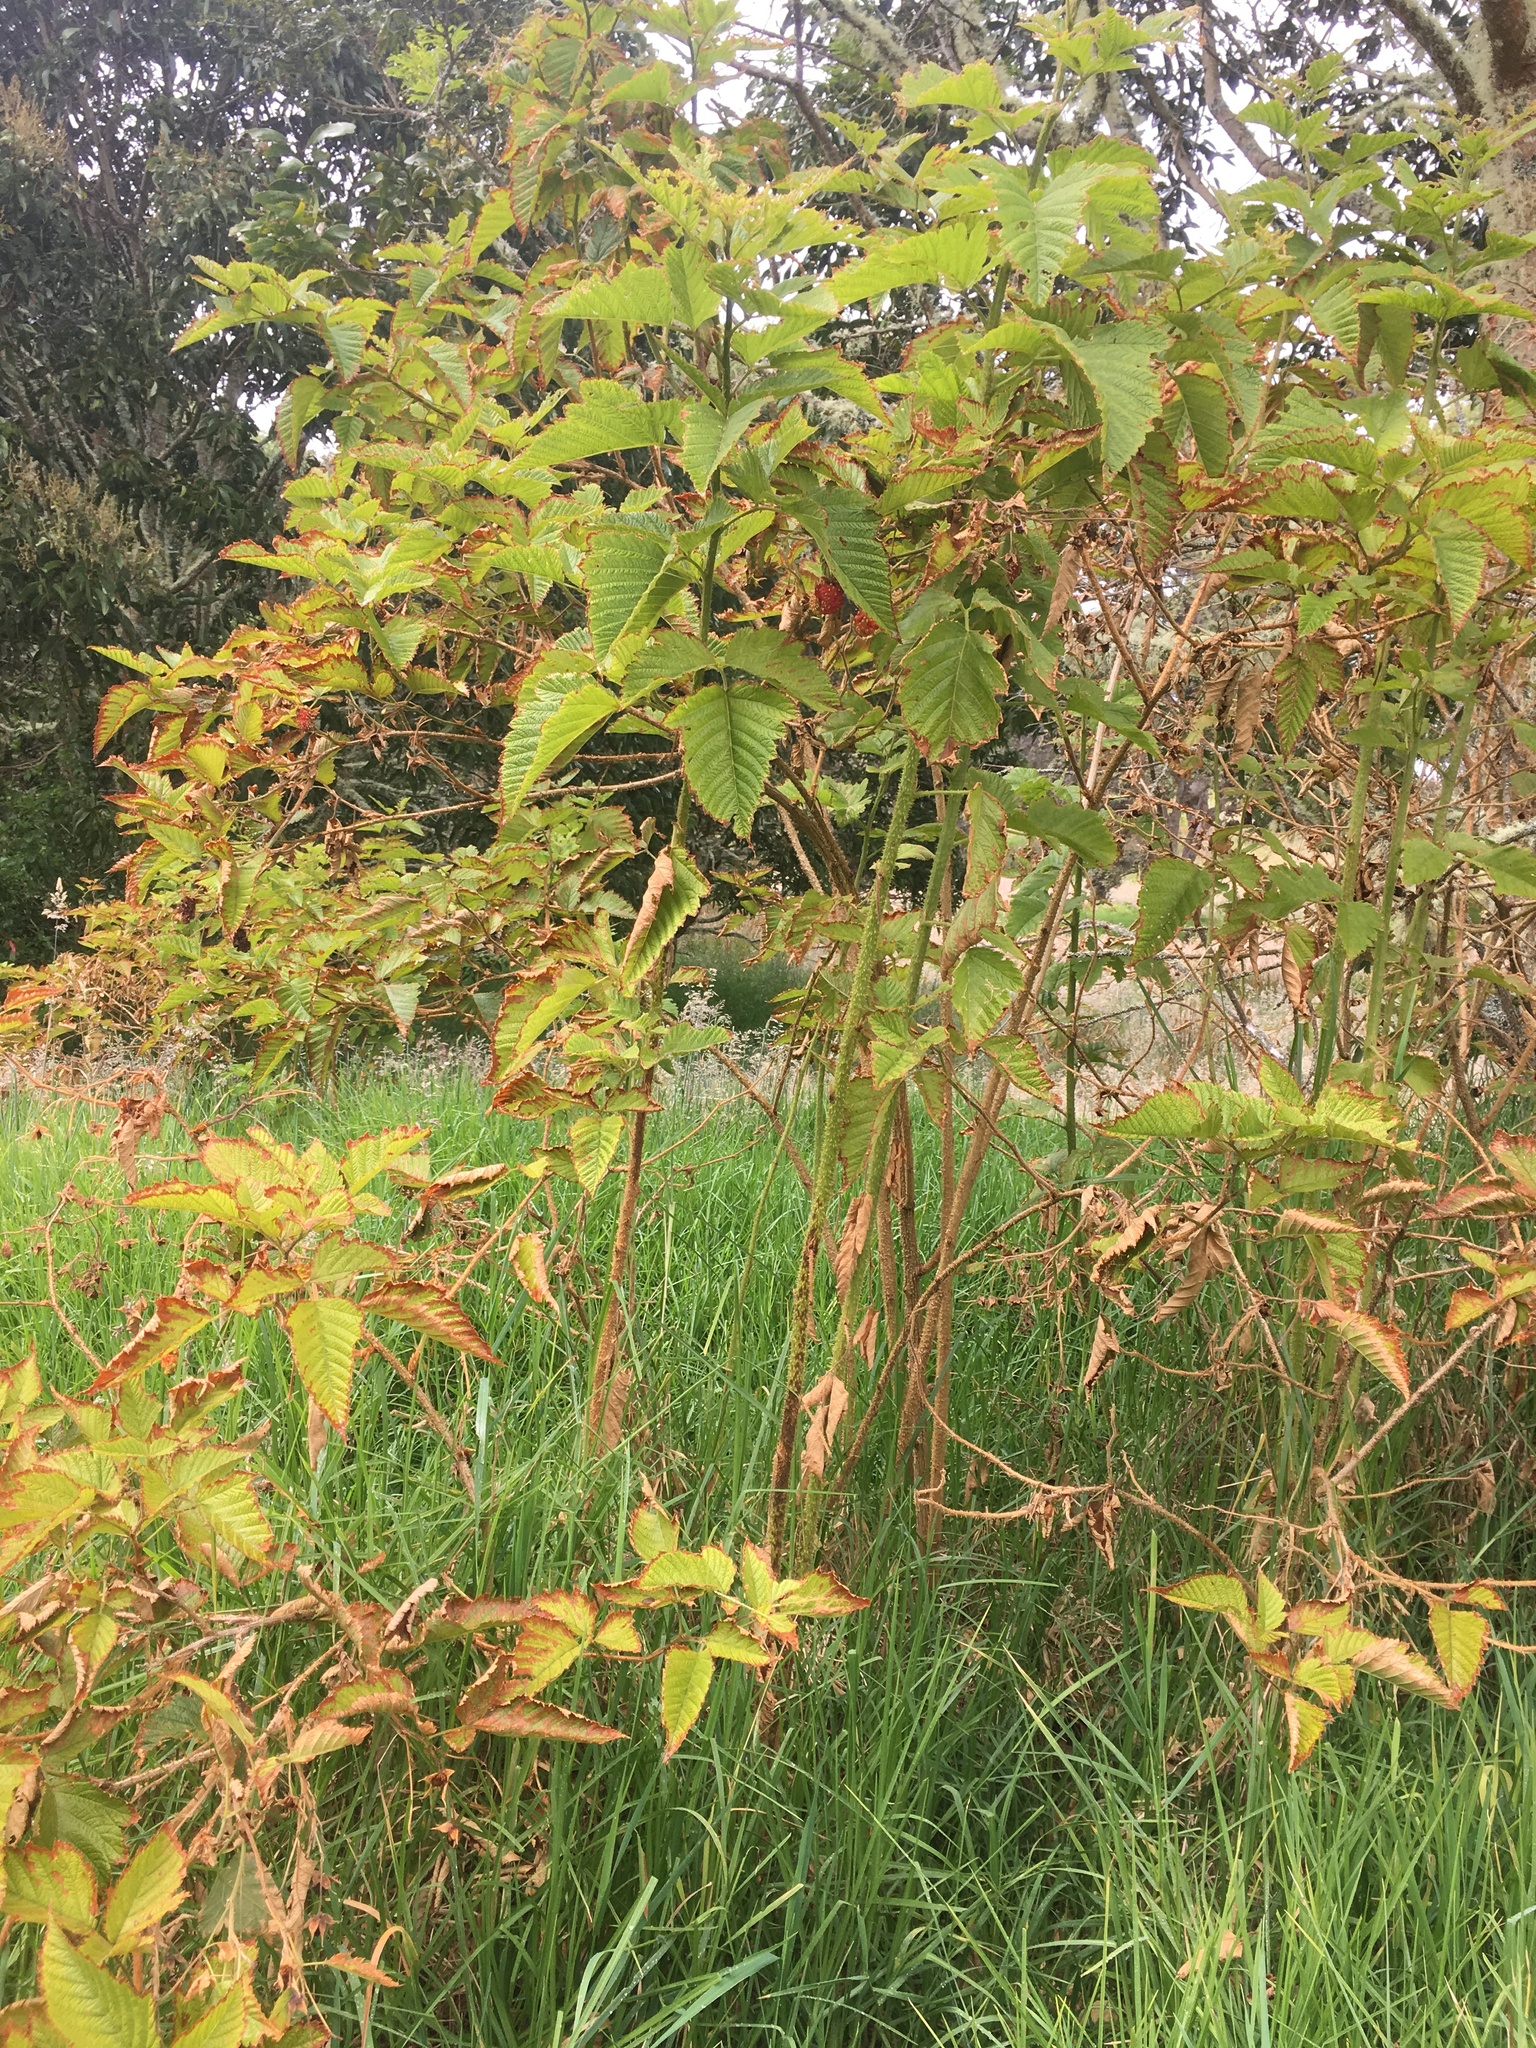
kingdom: Plantae
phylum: Tracheophyta
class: Magnoliopsida
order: Rosales
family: Rosaceae
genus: Rubus
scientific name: Rubus hawaiensis
